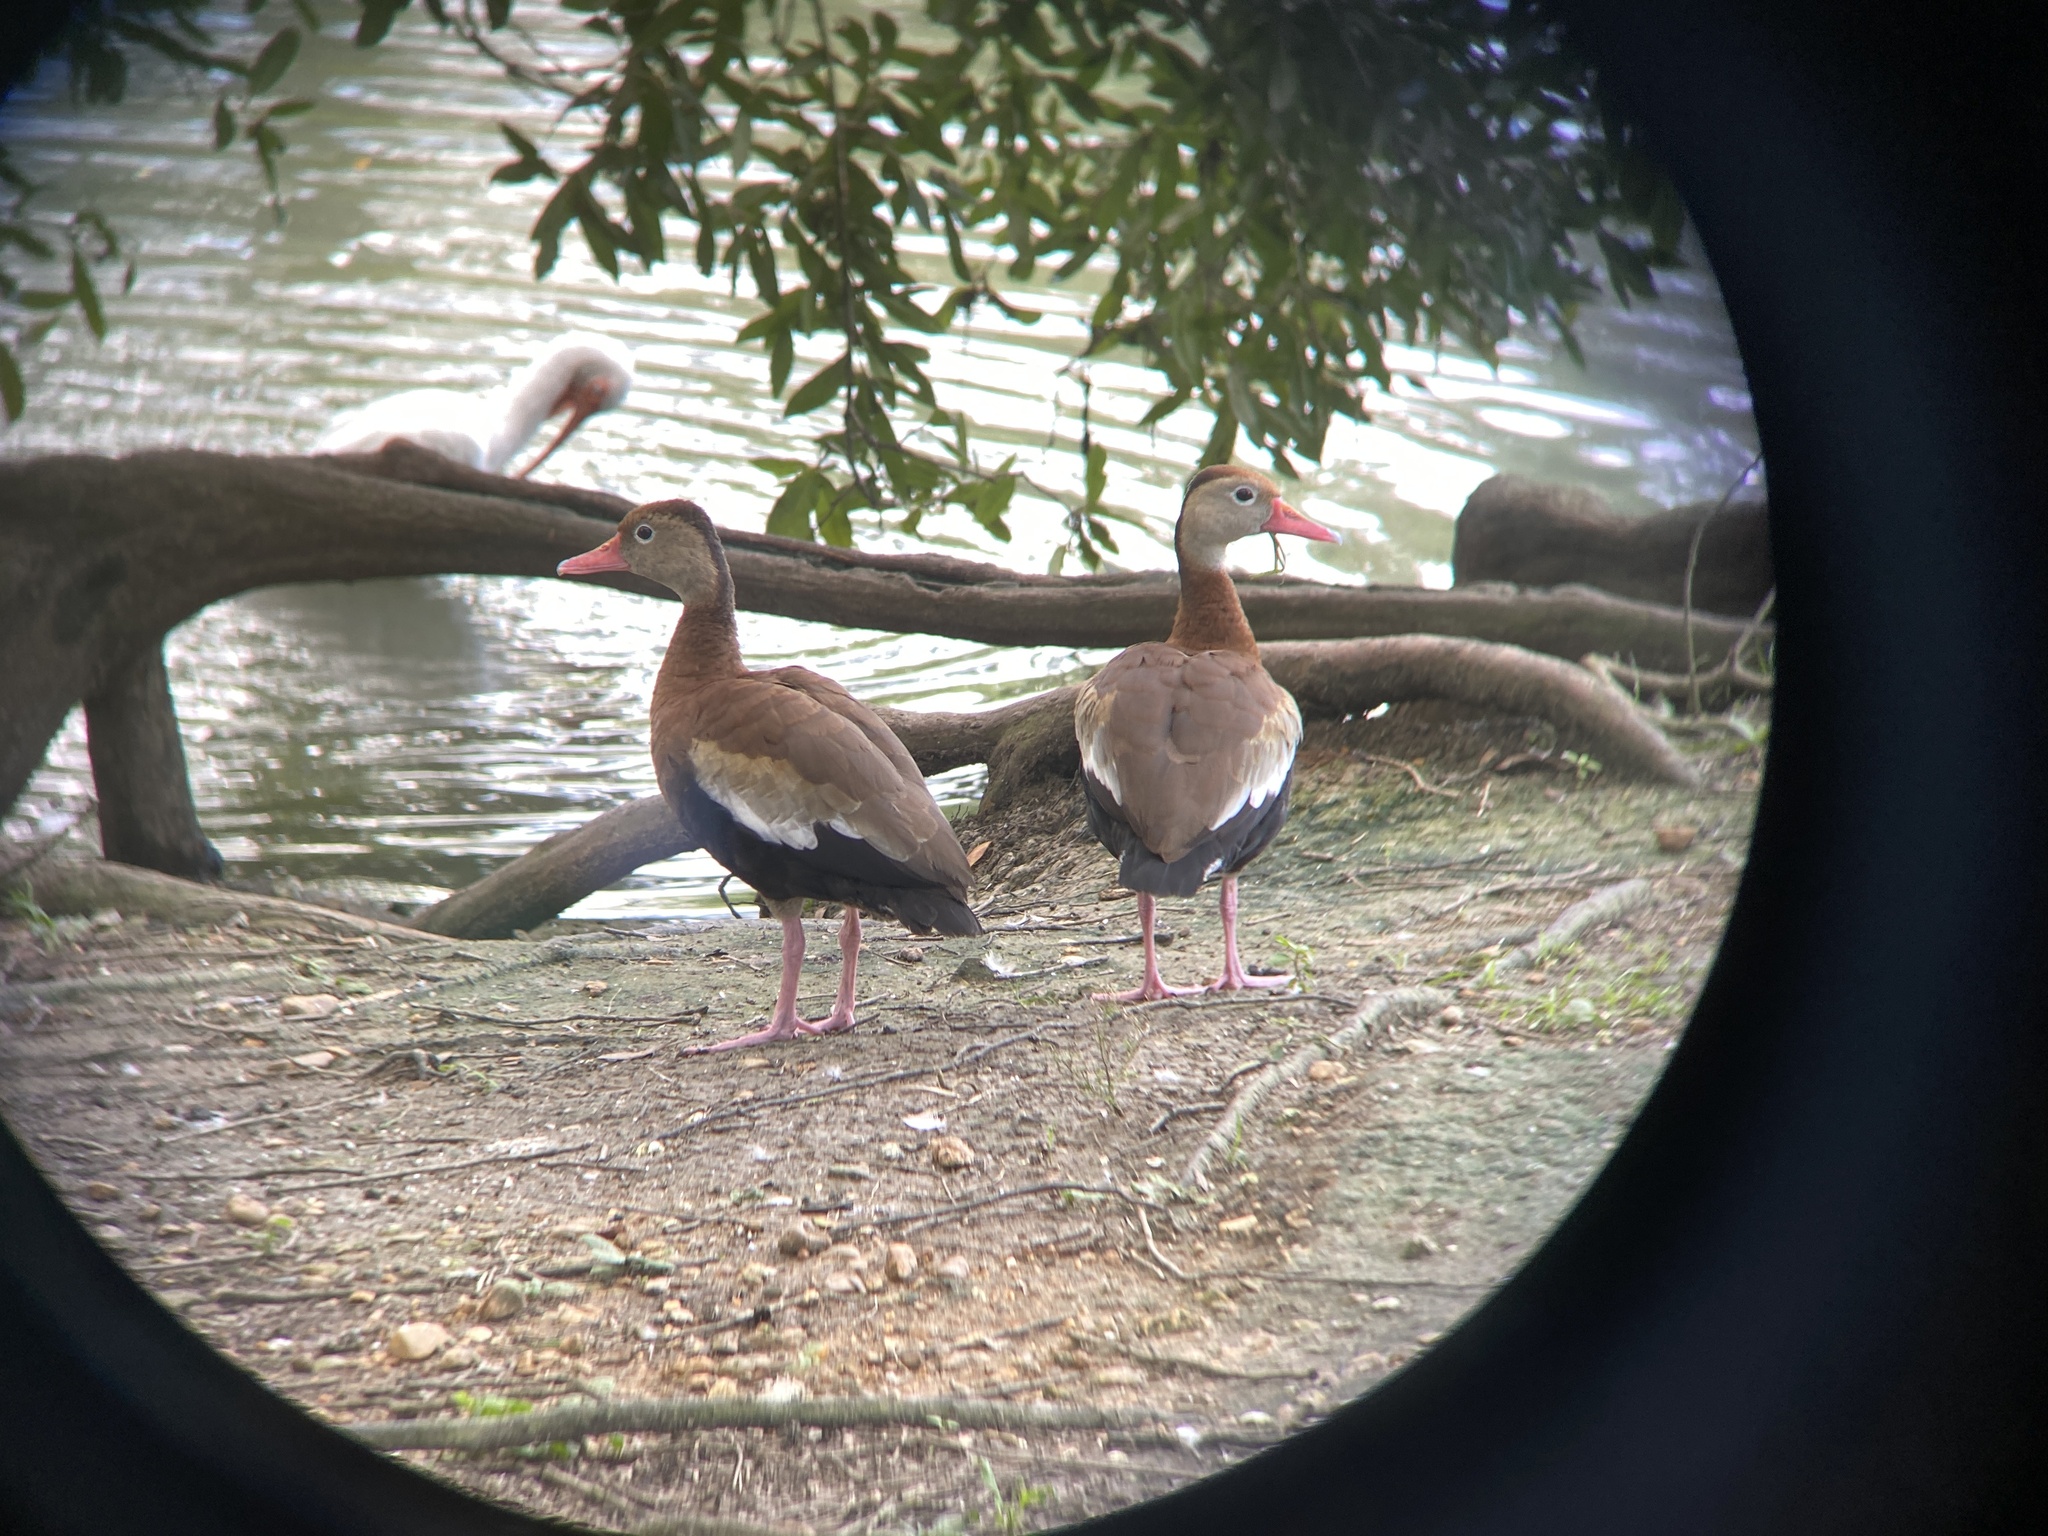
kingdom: Animalia
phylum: Chordata
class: Aves
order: Anseriformes
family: Anatidae
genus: Dendrocygna
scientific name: Dendrocygna autumnalis
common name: Black-bellied whistling duck
